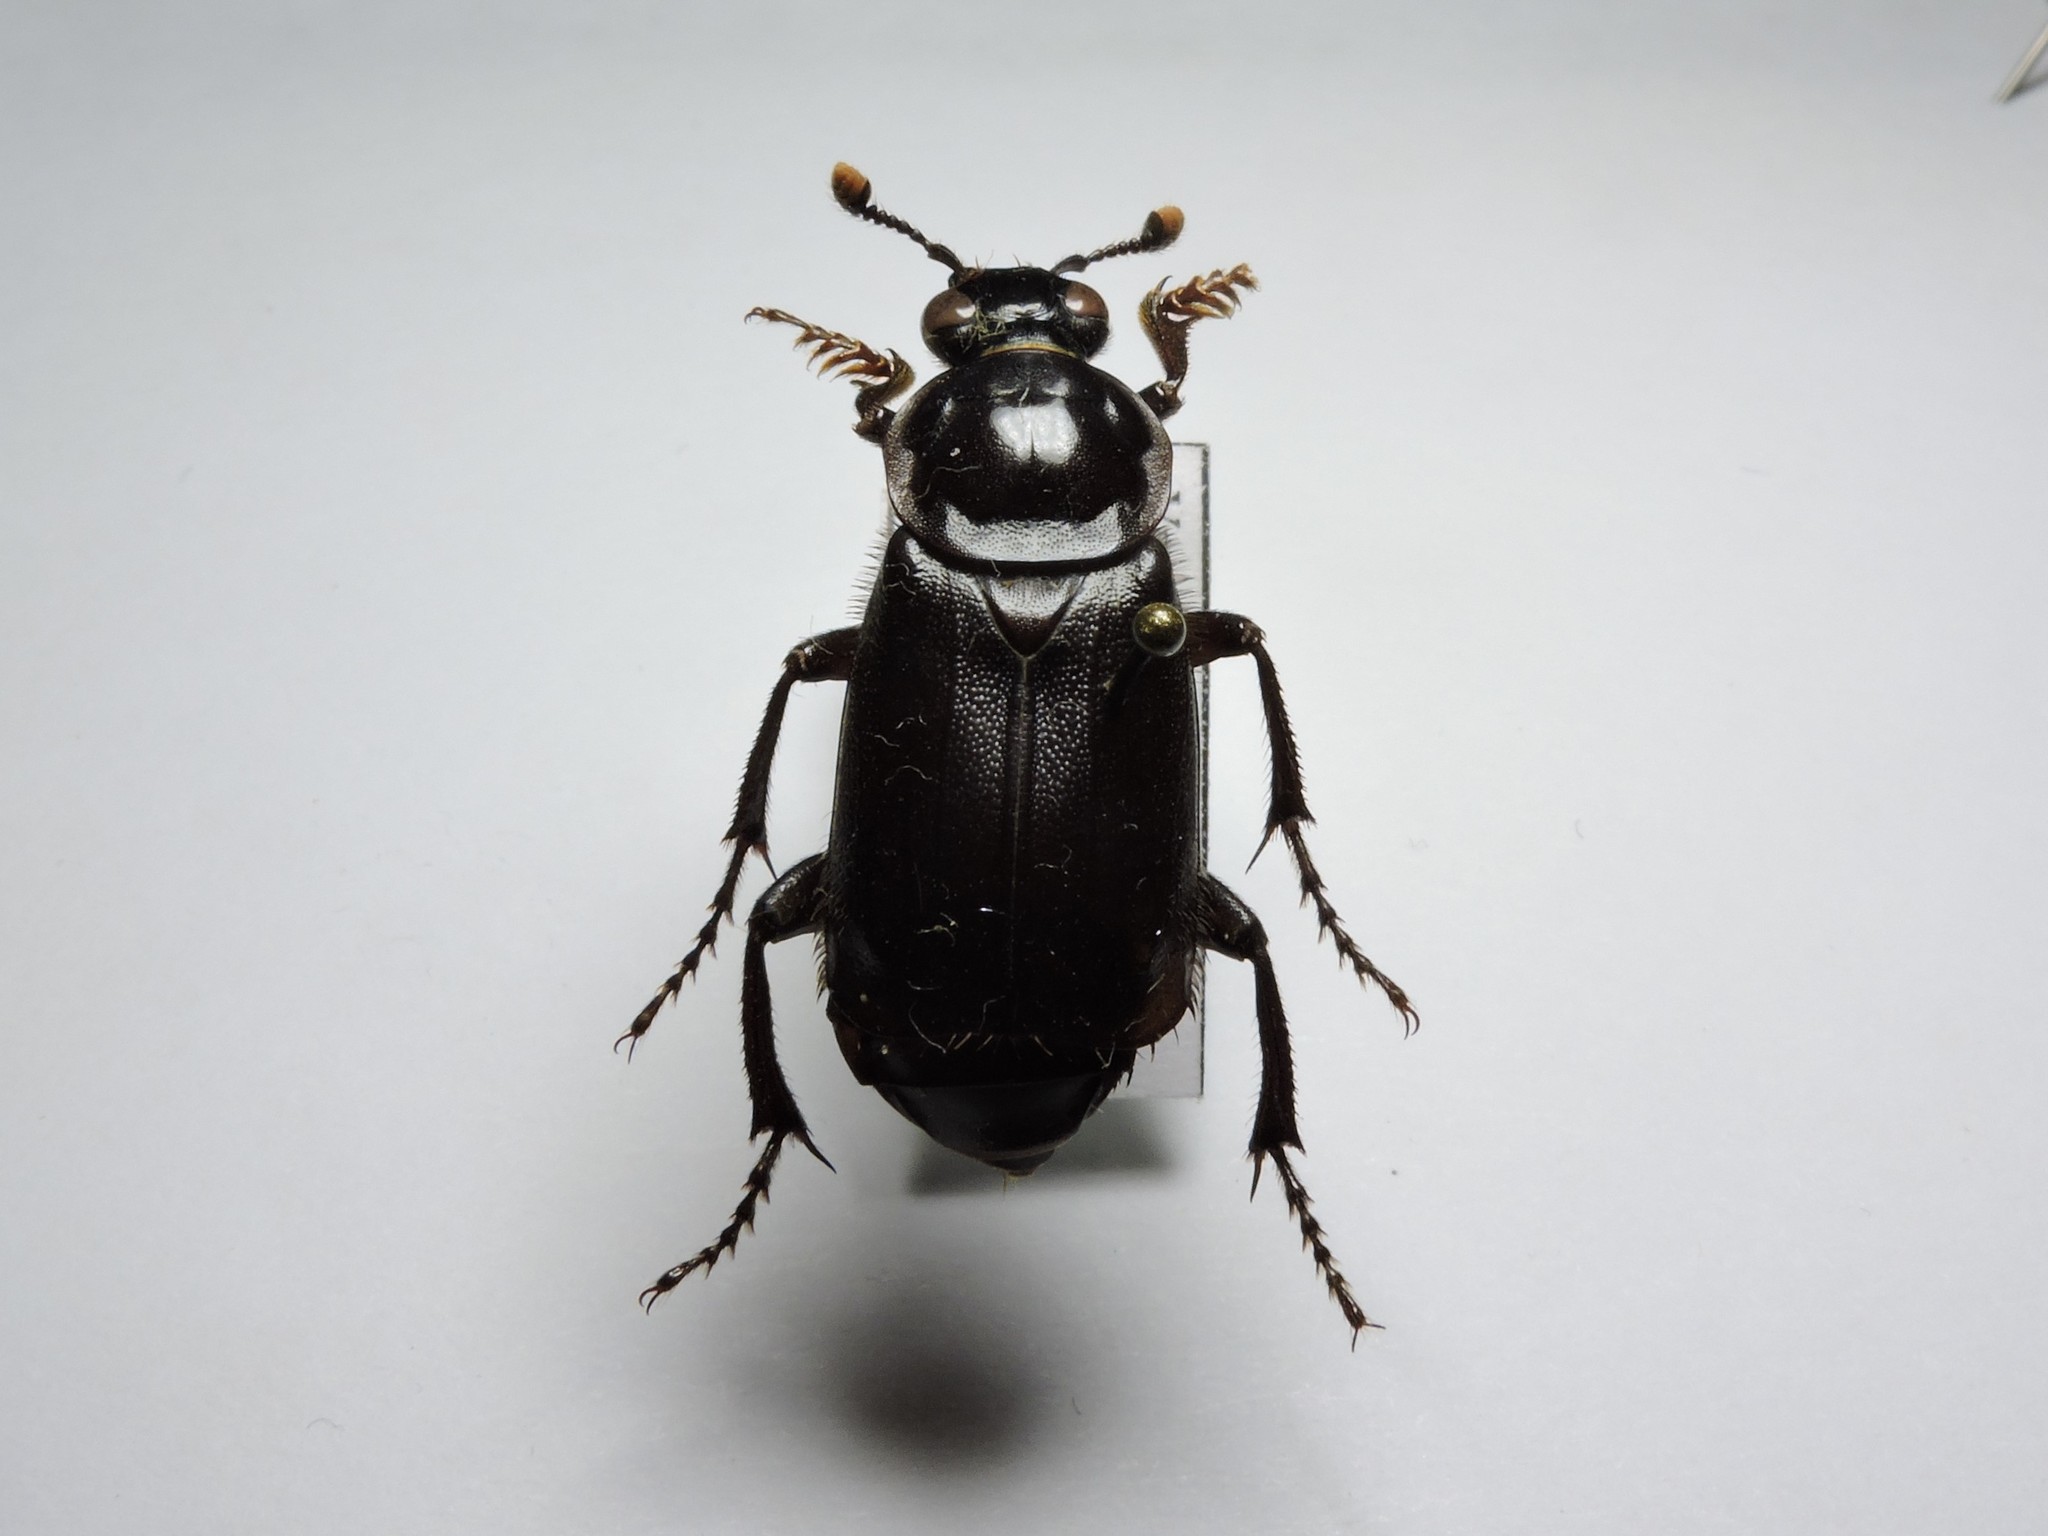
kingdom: Animalia
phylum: Arthropoda
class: Insecta
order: Coleoptera
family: Staphylinidae
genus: Nicrophorus
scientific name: Nicrophorus humator
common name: Black sexton beetle
